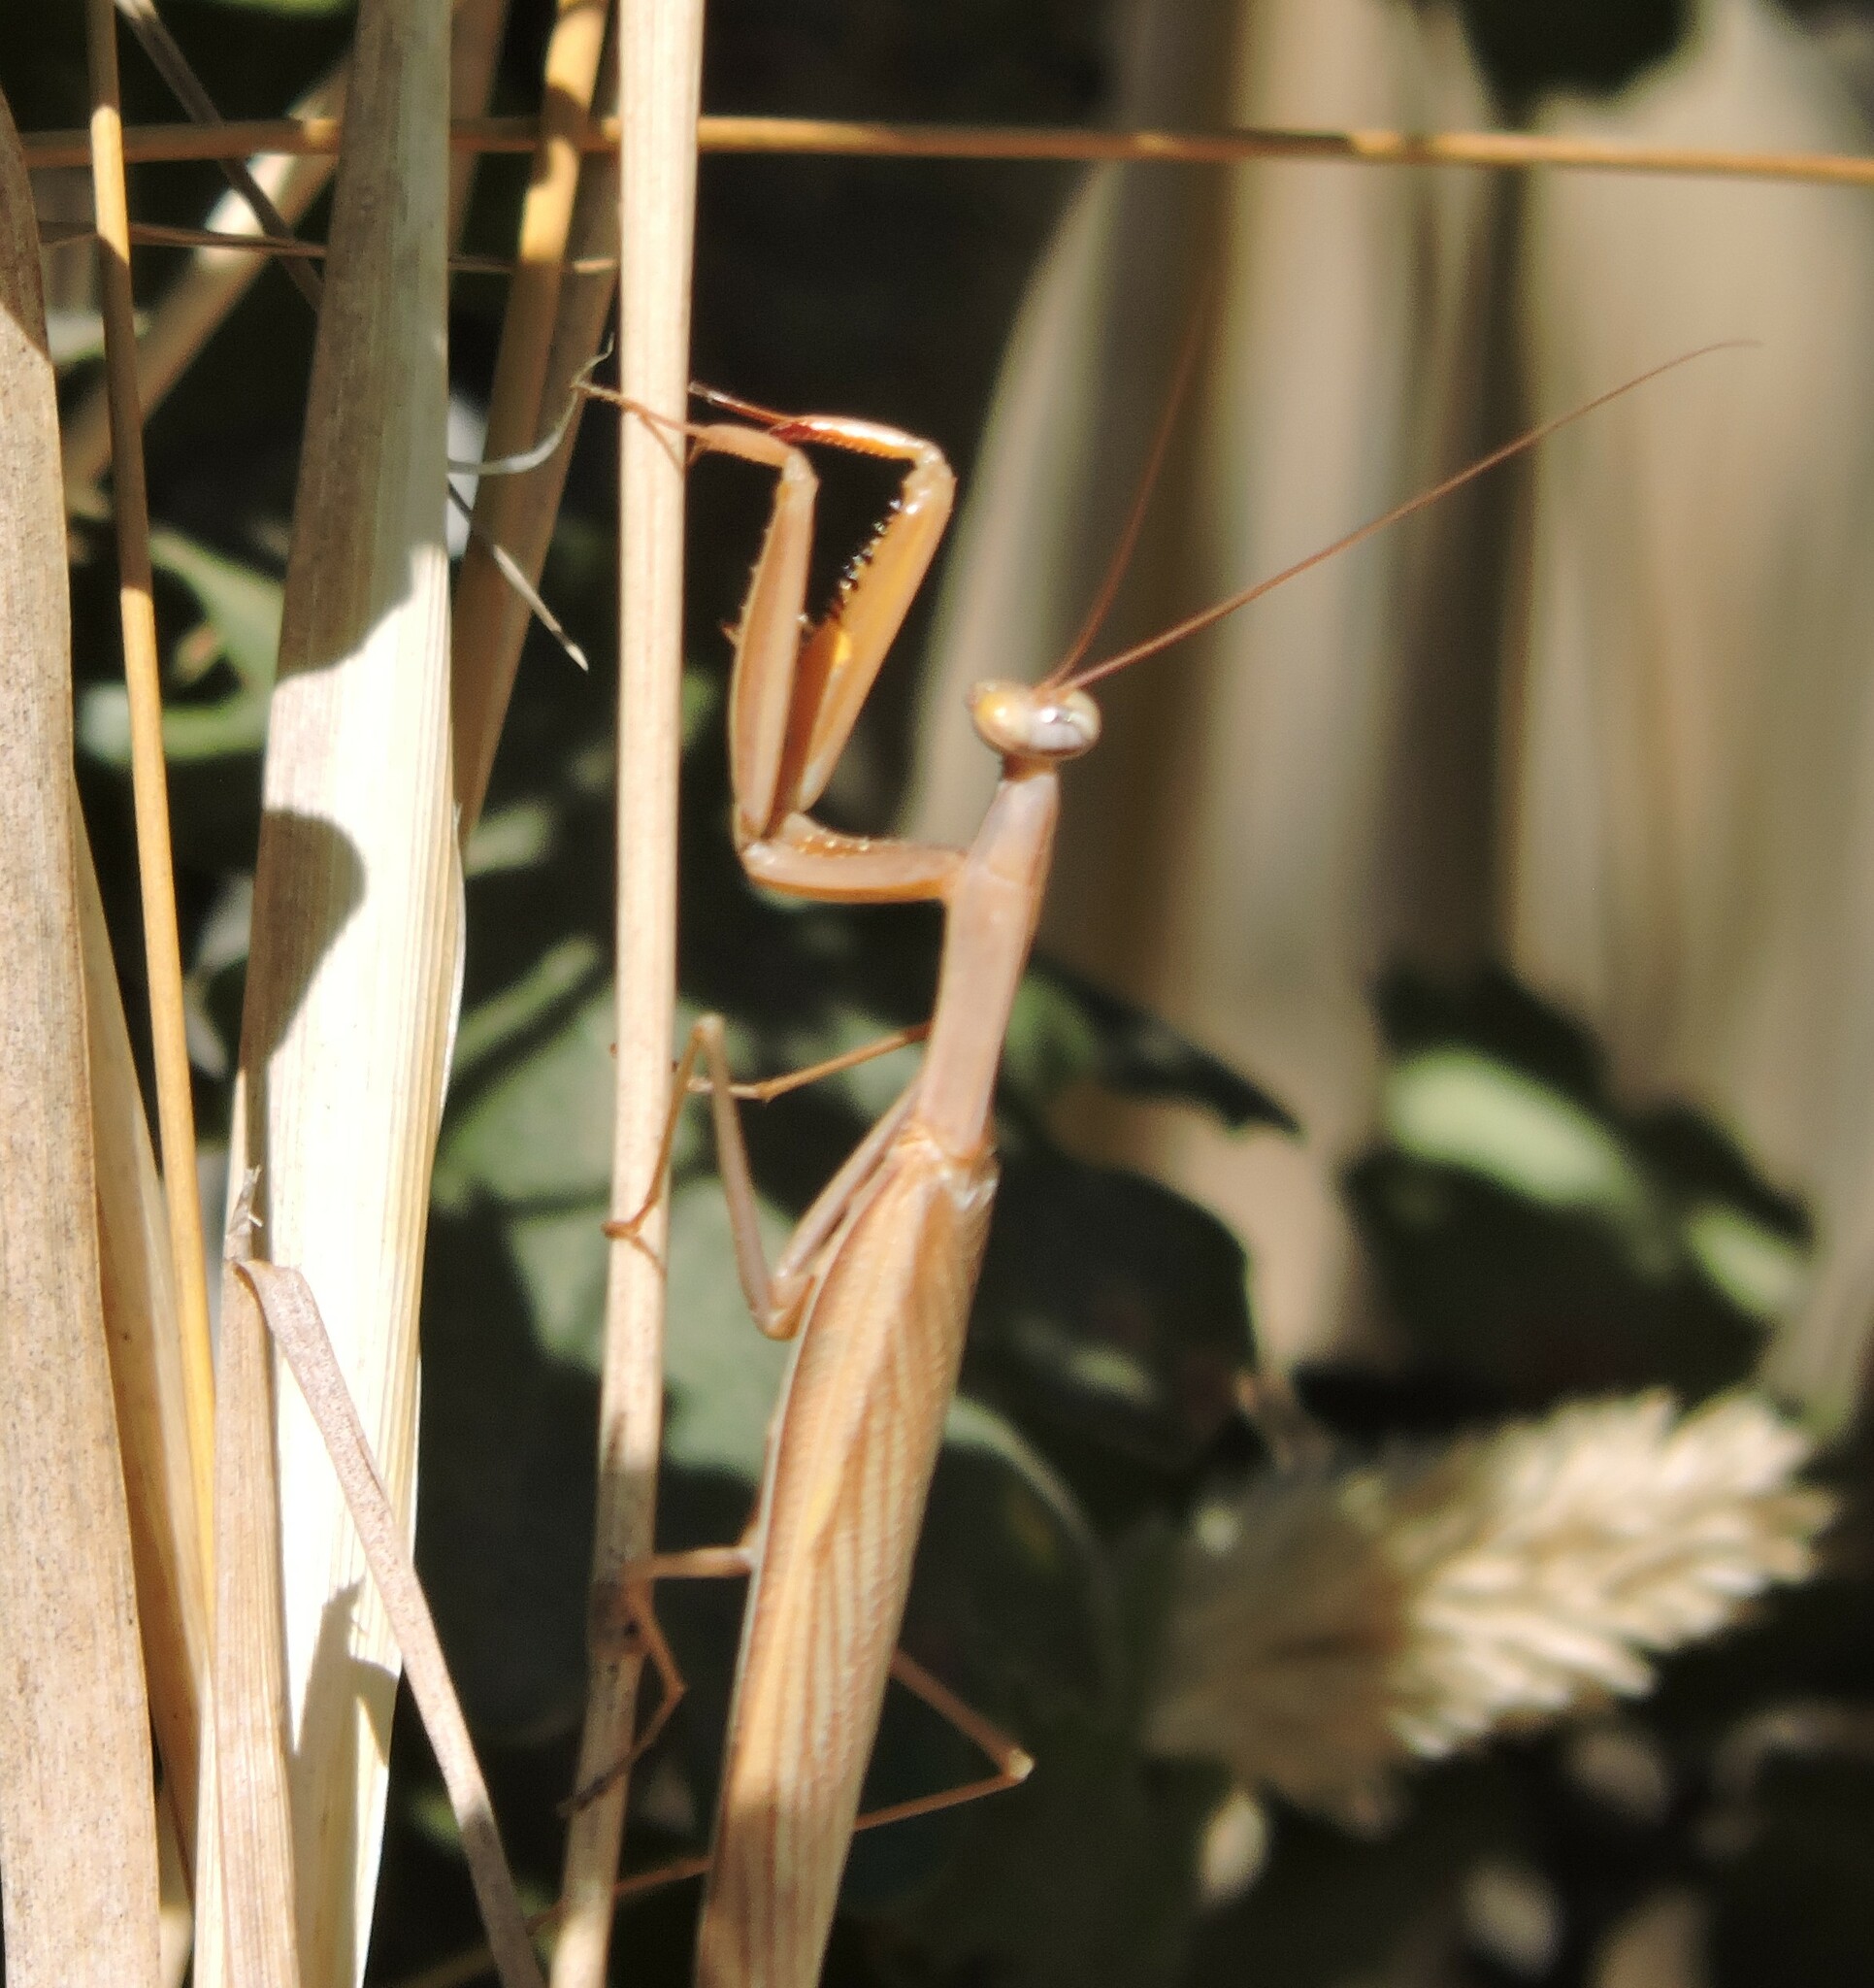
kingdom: Animalia
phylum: Arthropoda
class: Insecta
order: Mantodea
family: Mantidae
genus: Mantis
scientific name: Mantis religiosa
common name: Praying mantis
